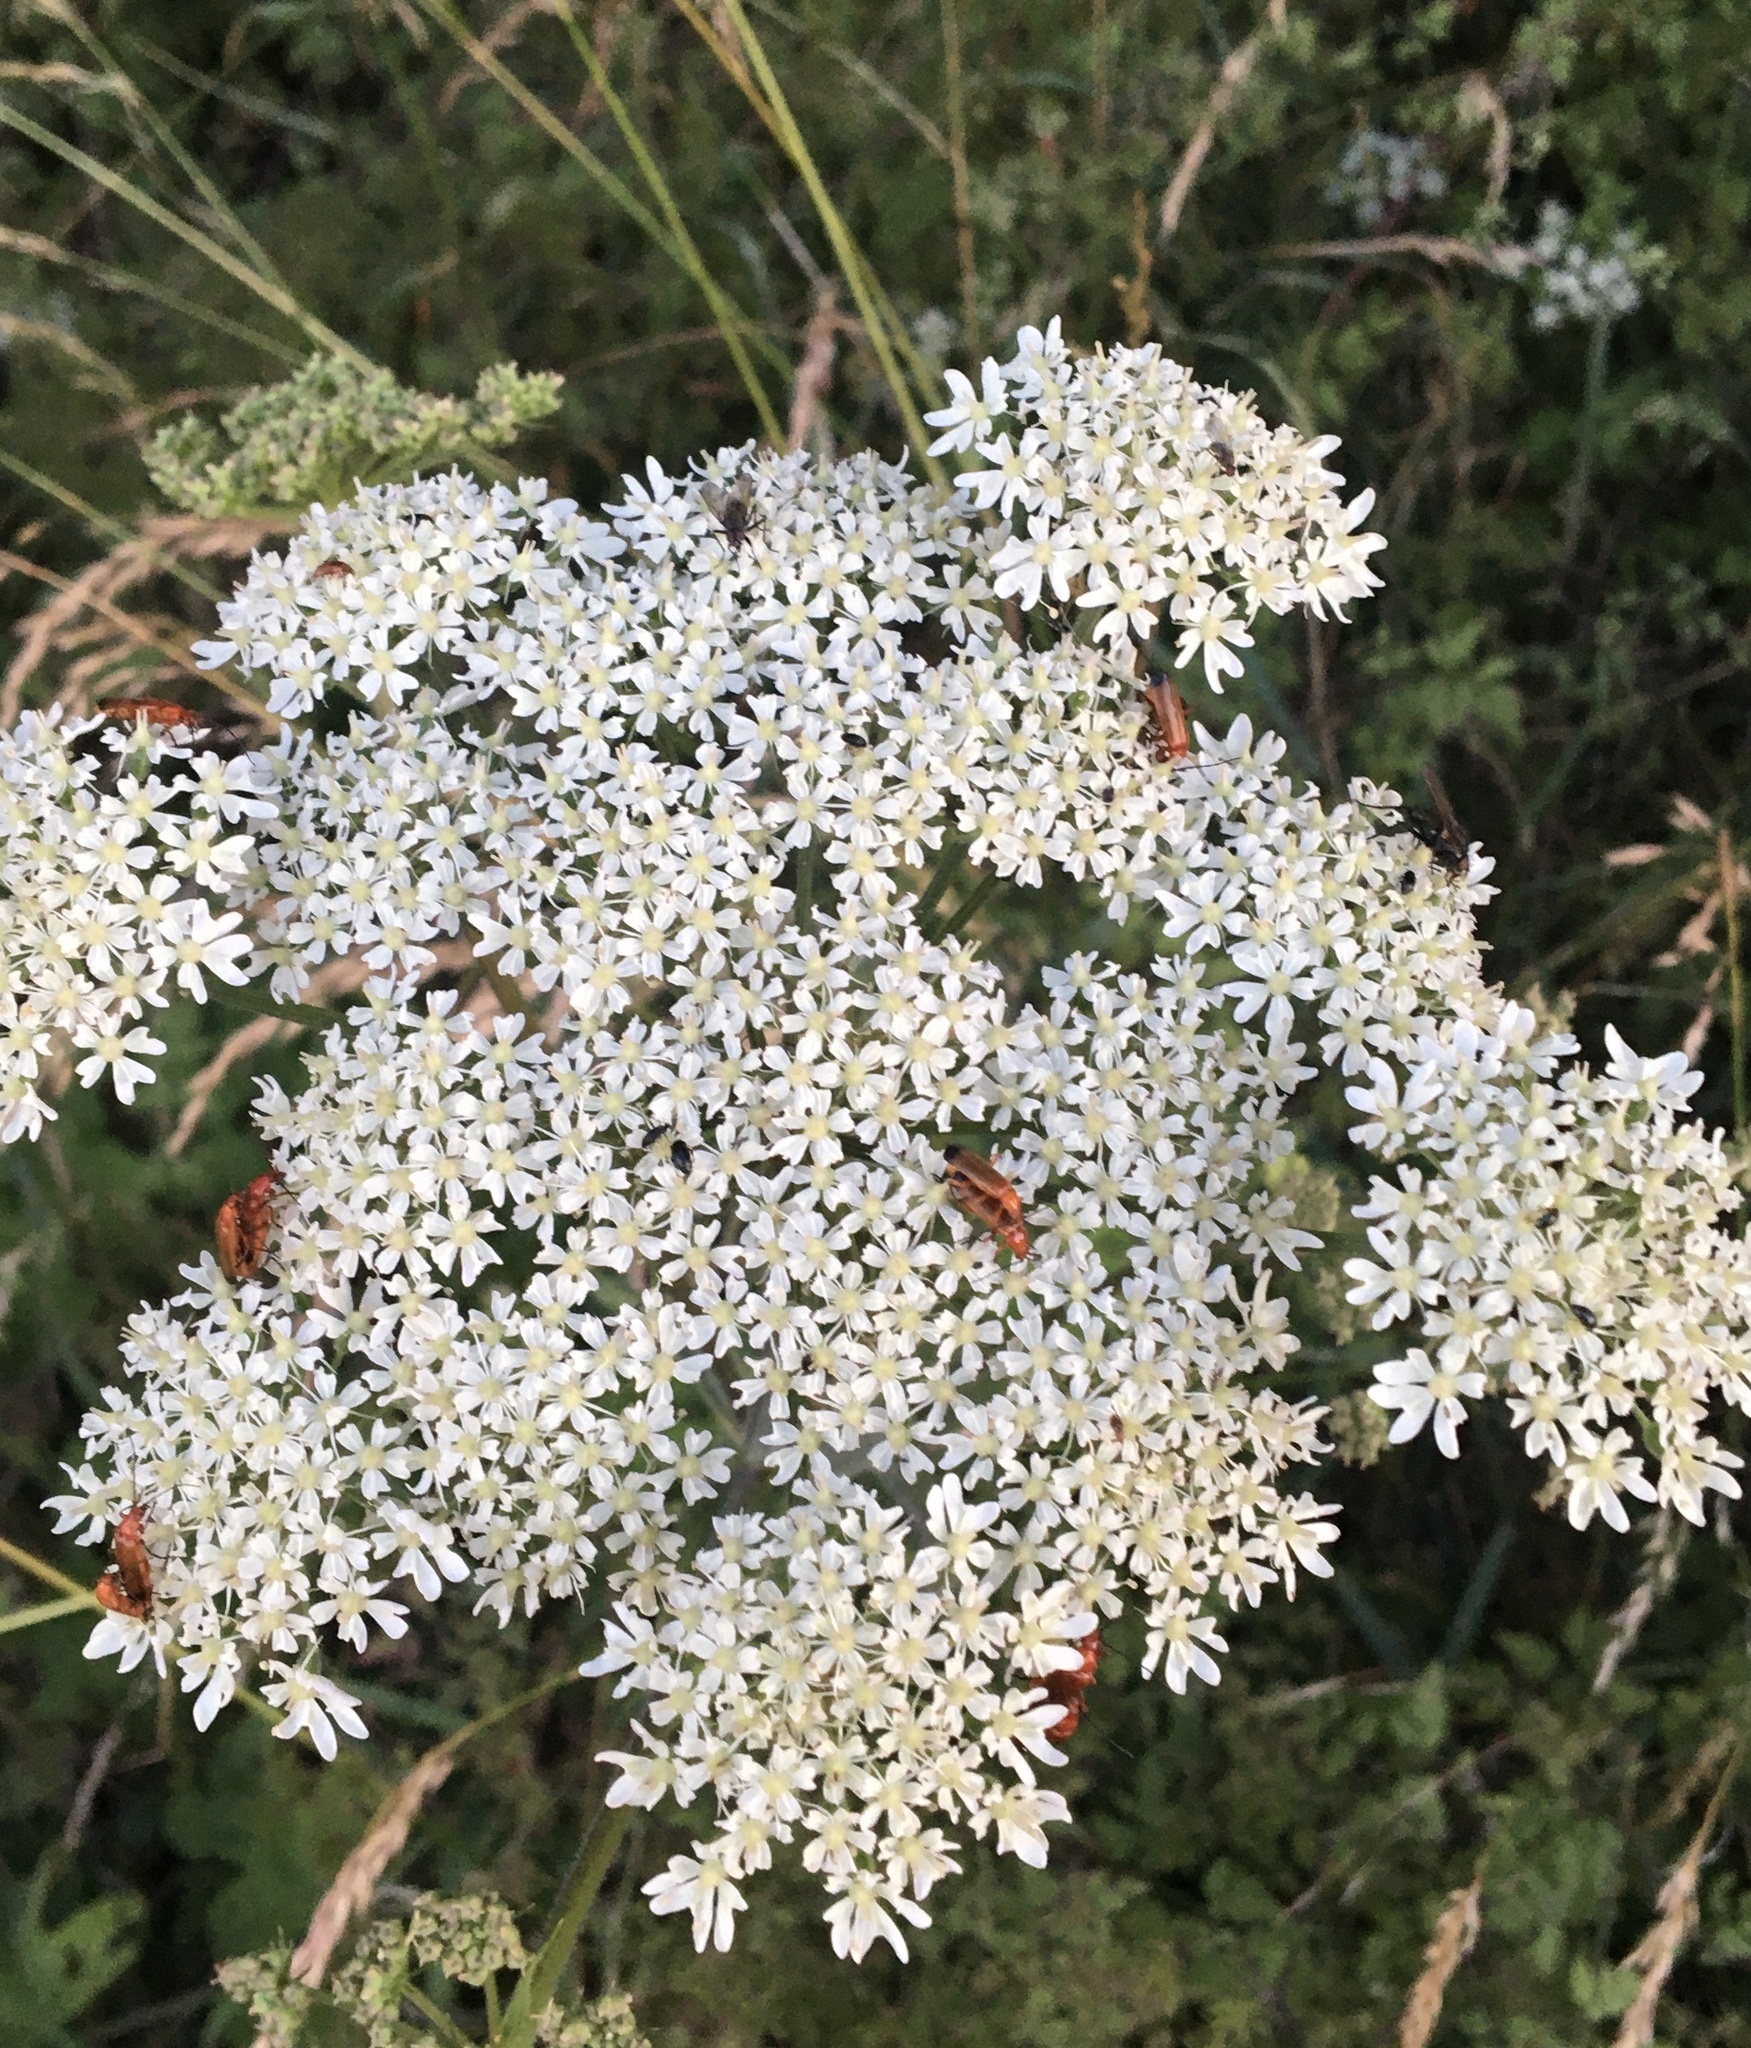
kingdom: Animalia
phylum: Arthropoda
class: Insecta
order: Coleoptera
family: Cantharidae
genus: Rhagonycha
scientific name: Rhagonycha fulva
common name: Common red soldier beetle
